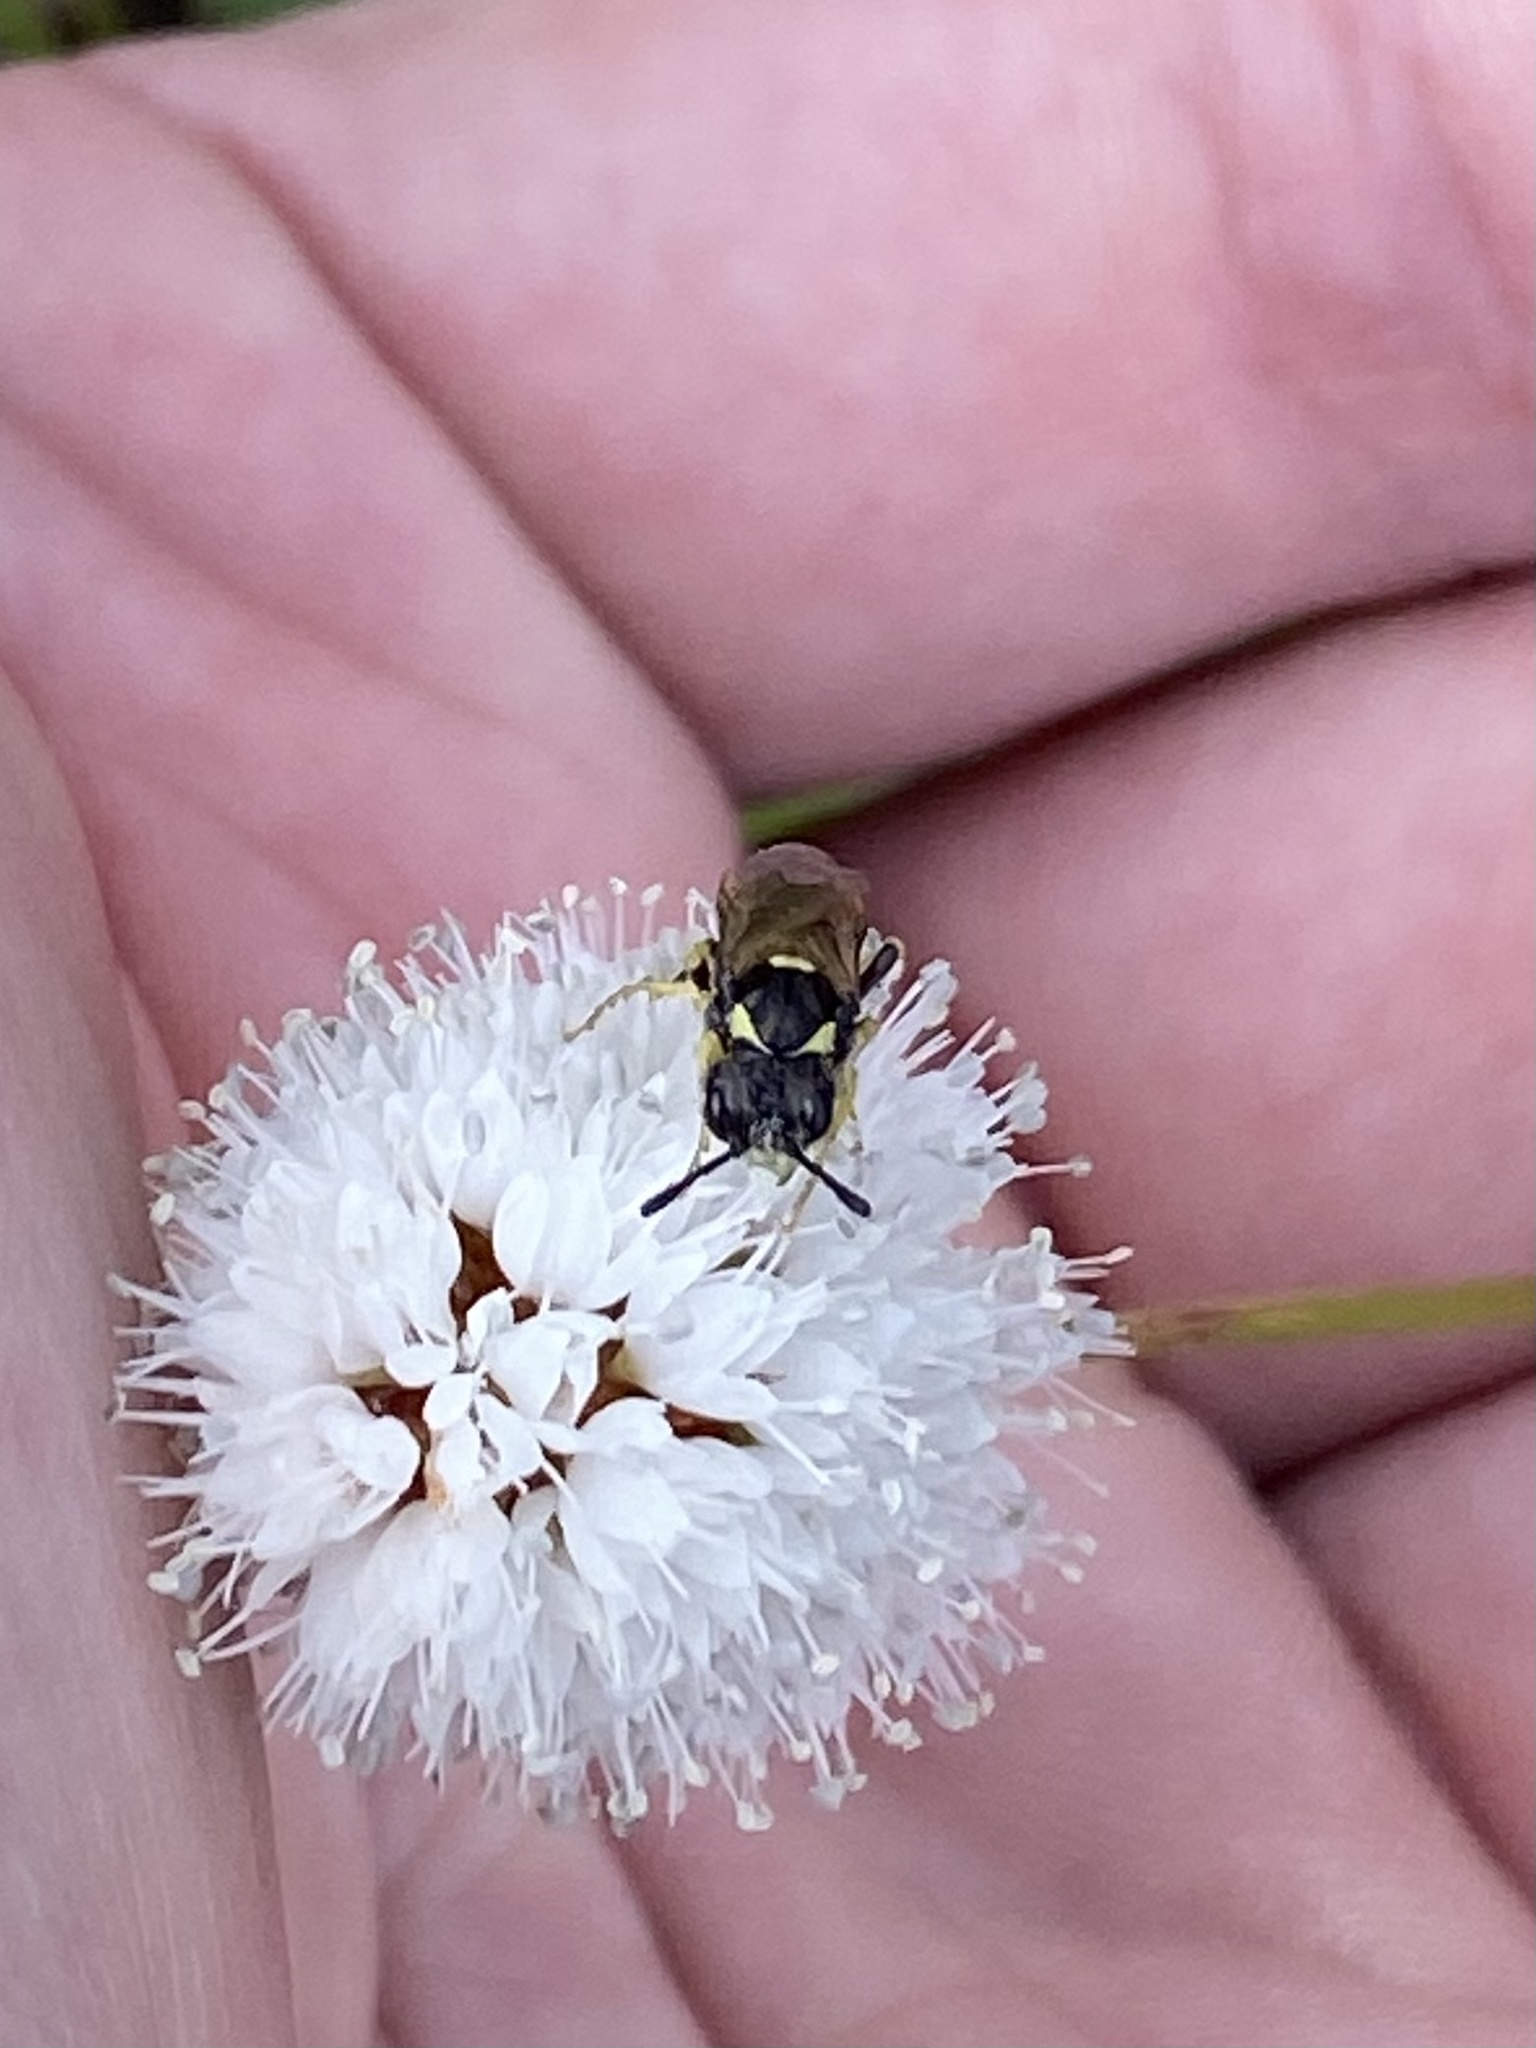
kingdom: Animalia
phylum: Arthropoda
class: Insecta
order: Hymenoptera
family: Tenthredinidae
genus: Tenthredo
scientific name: Tenthredo
